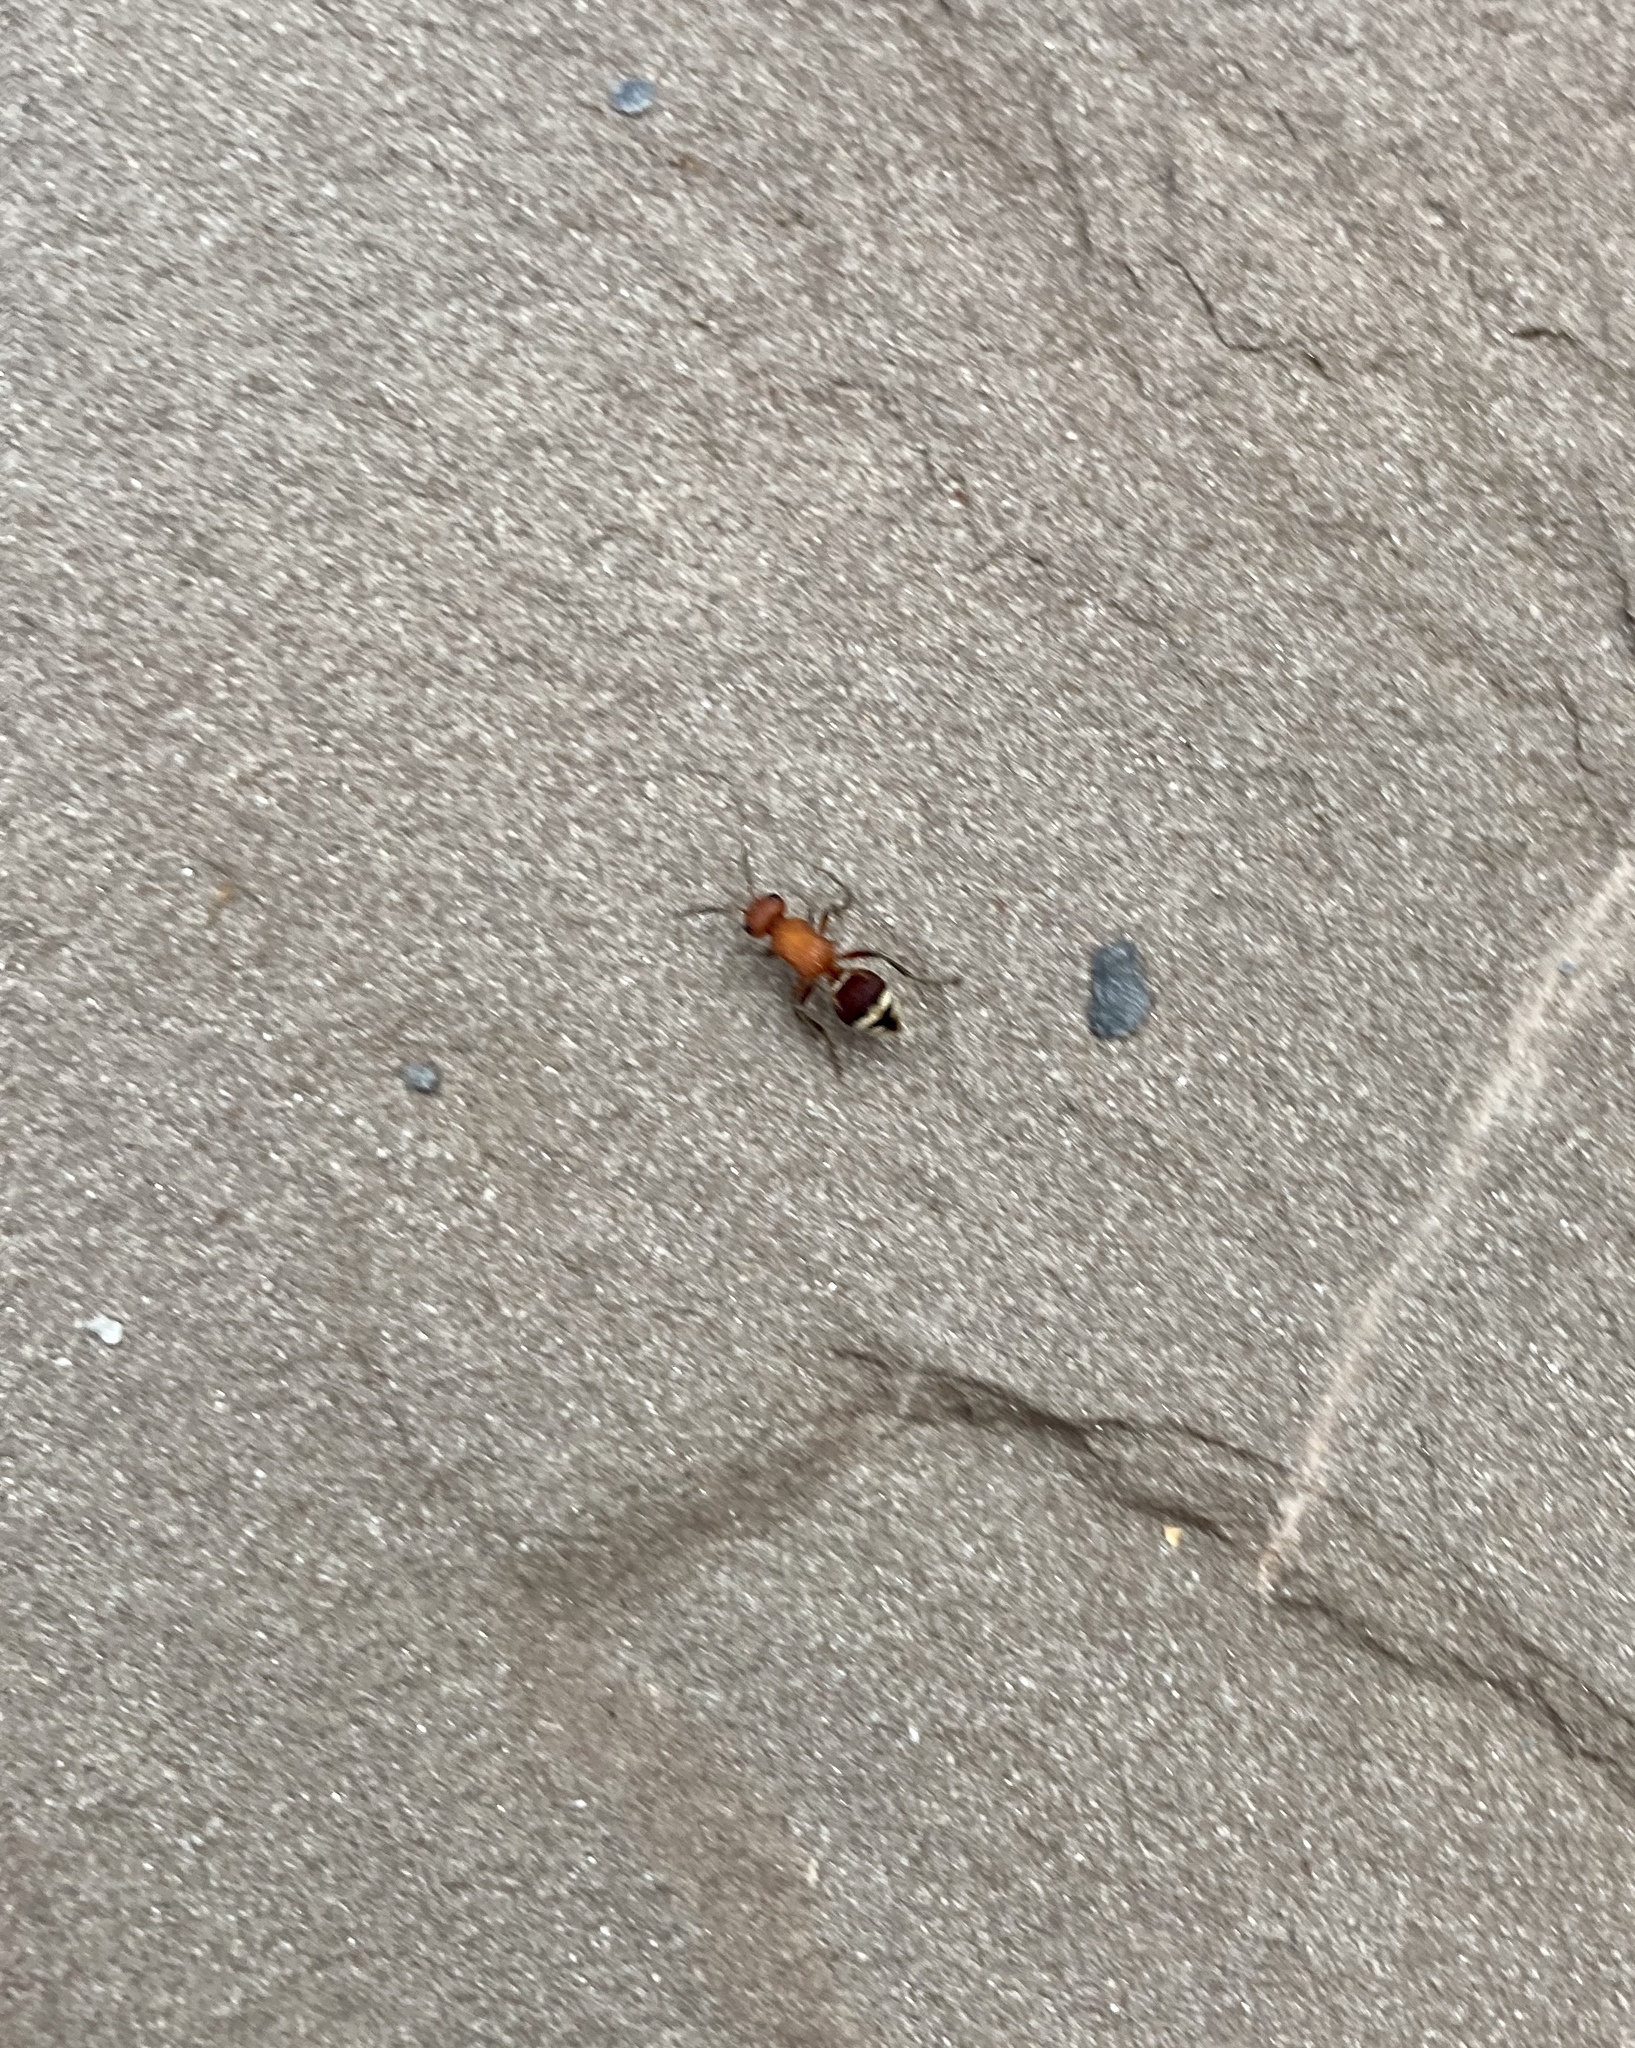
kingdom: Animalia
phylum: Arthropoda
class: Insecta
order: Hymenoptera
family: Mutillidae
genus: Timulla
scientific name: Timulla
